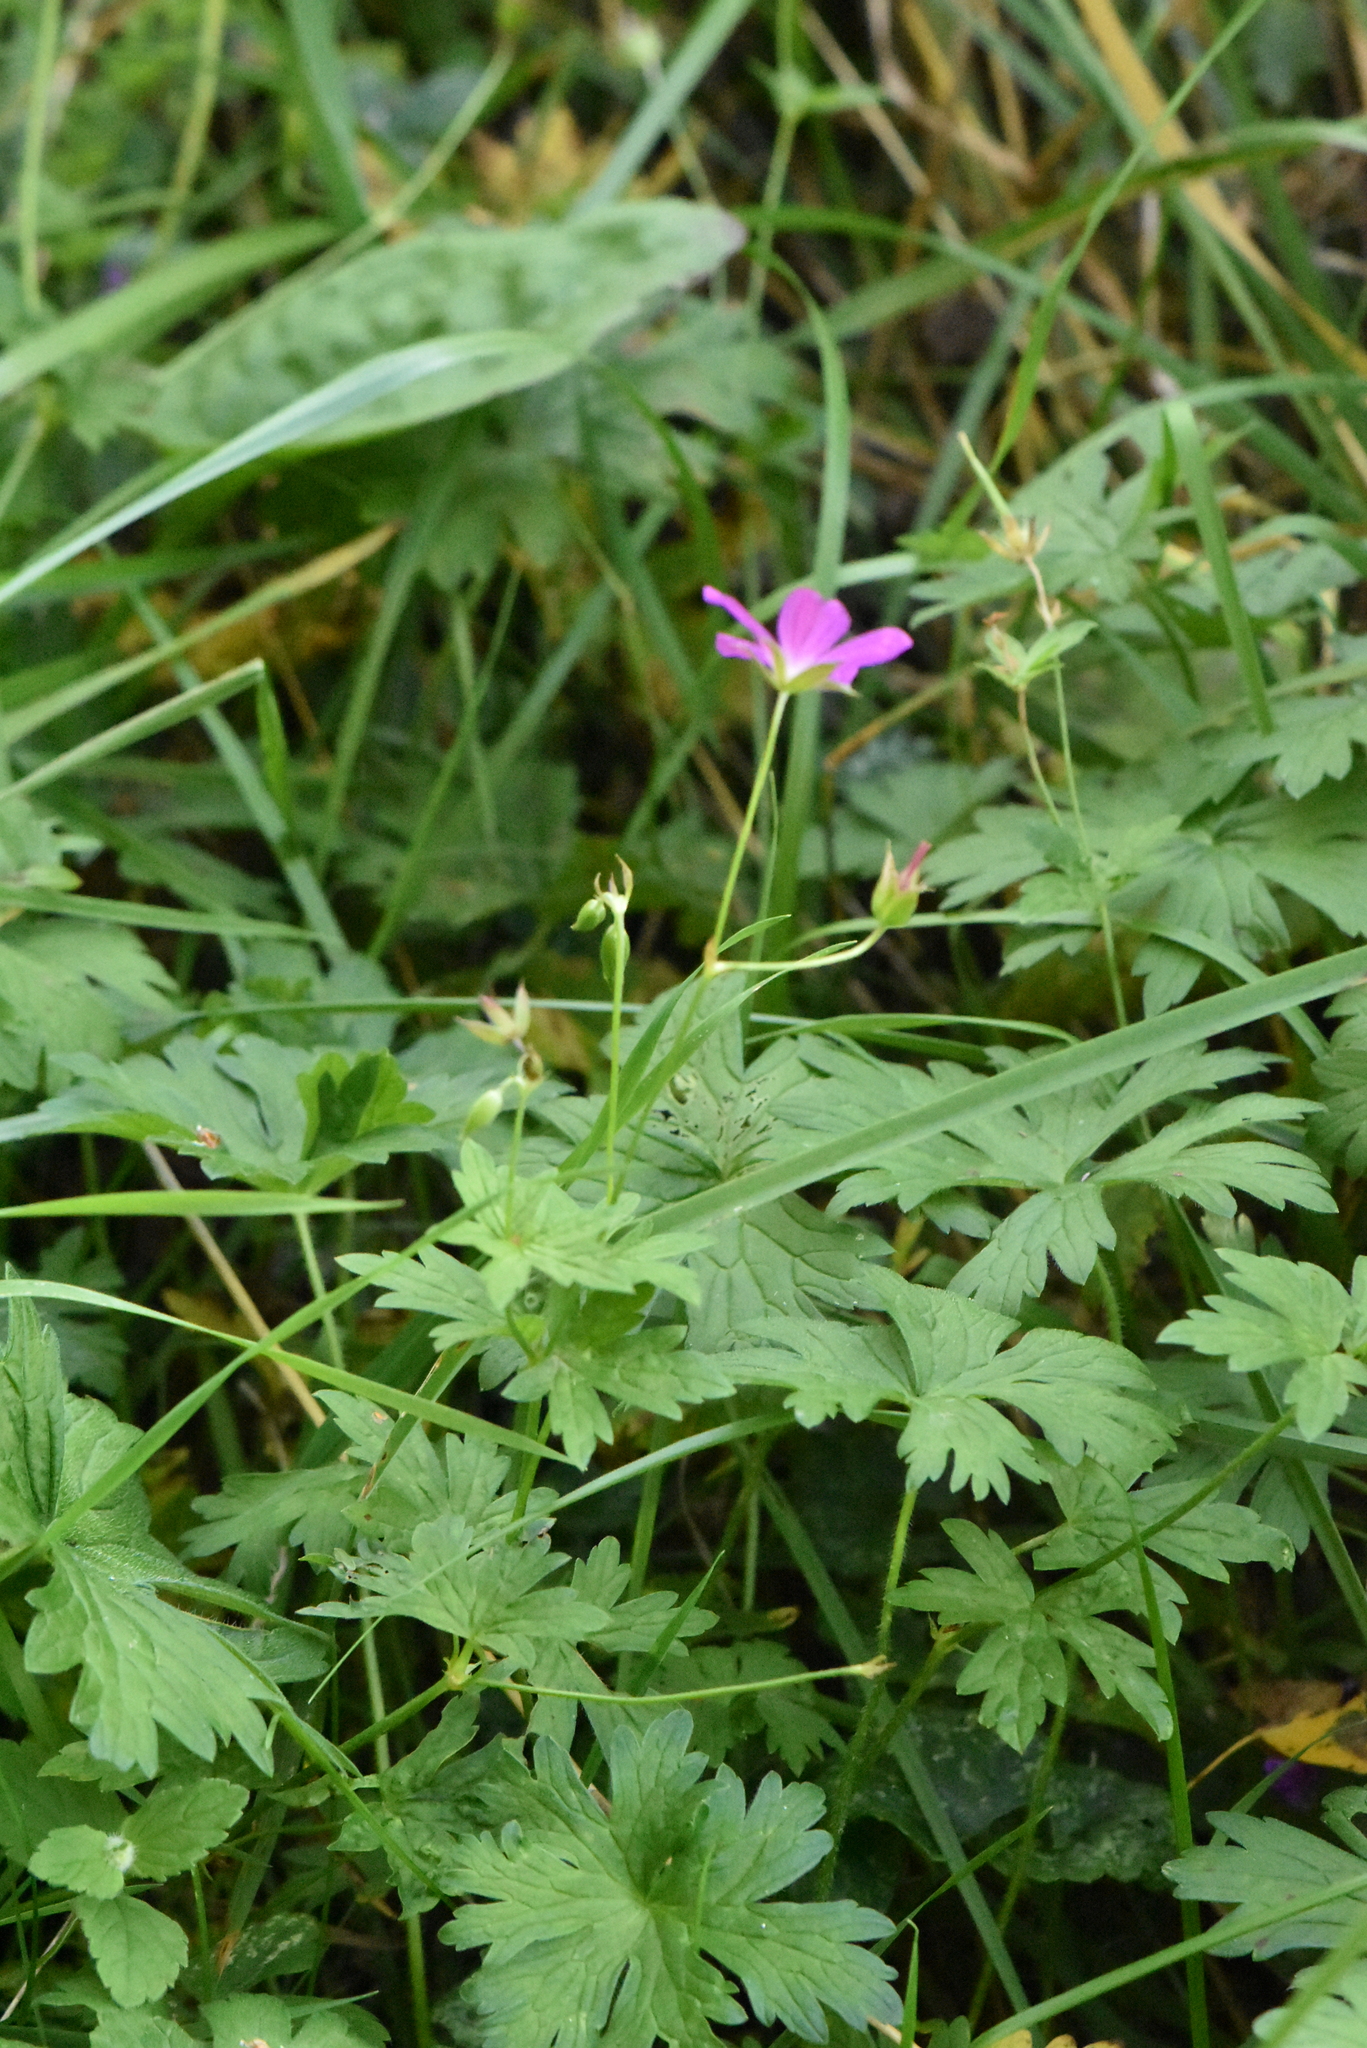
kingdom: Plantae
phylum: Tracheophyta
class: Magnoliopsida
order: Geraniales
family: Geraniaceae
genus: Geranium
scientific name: Geranium palustre
